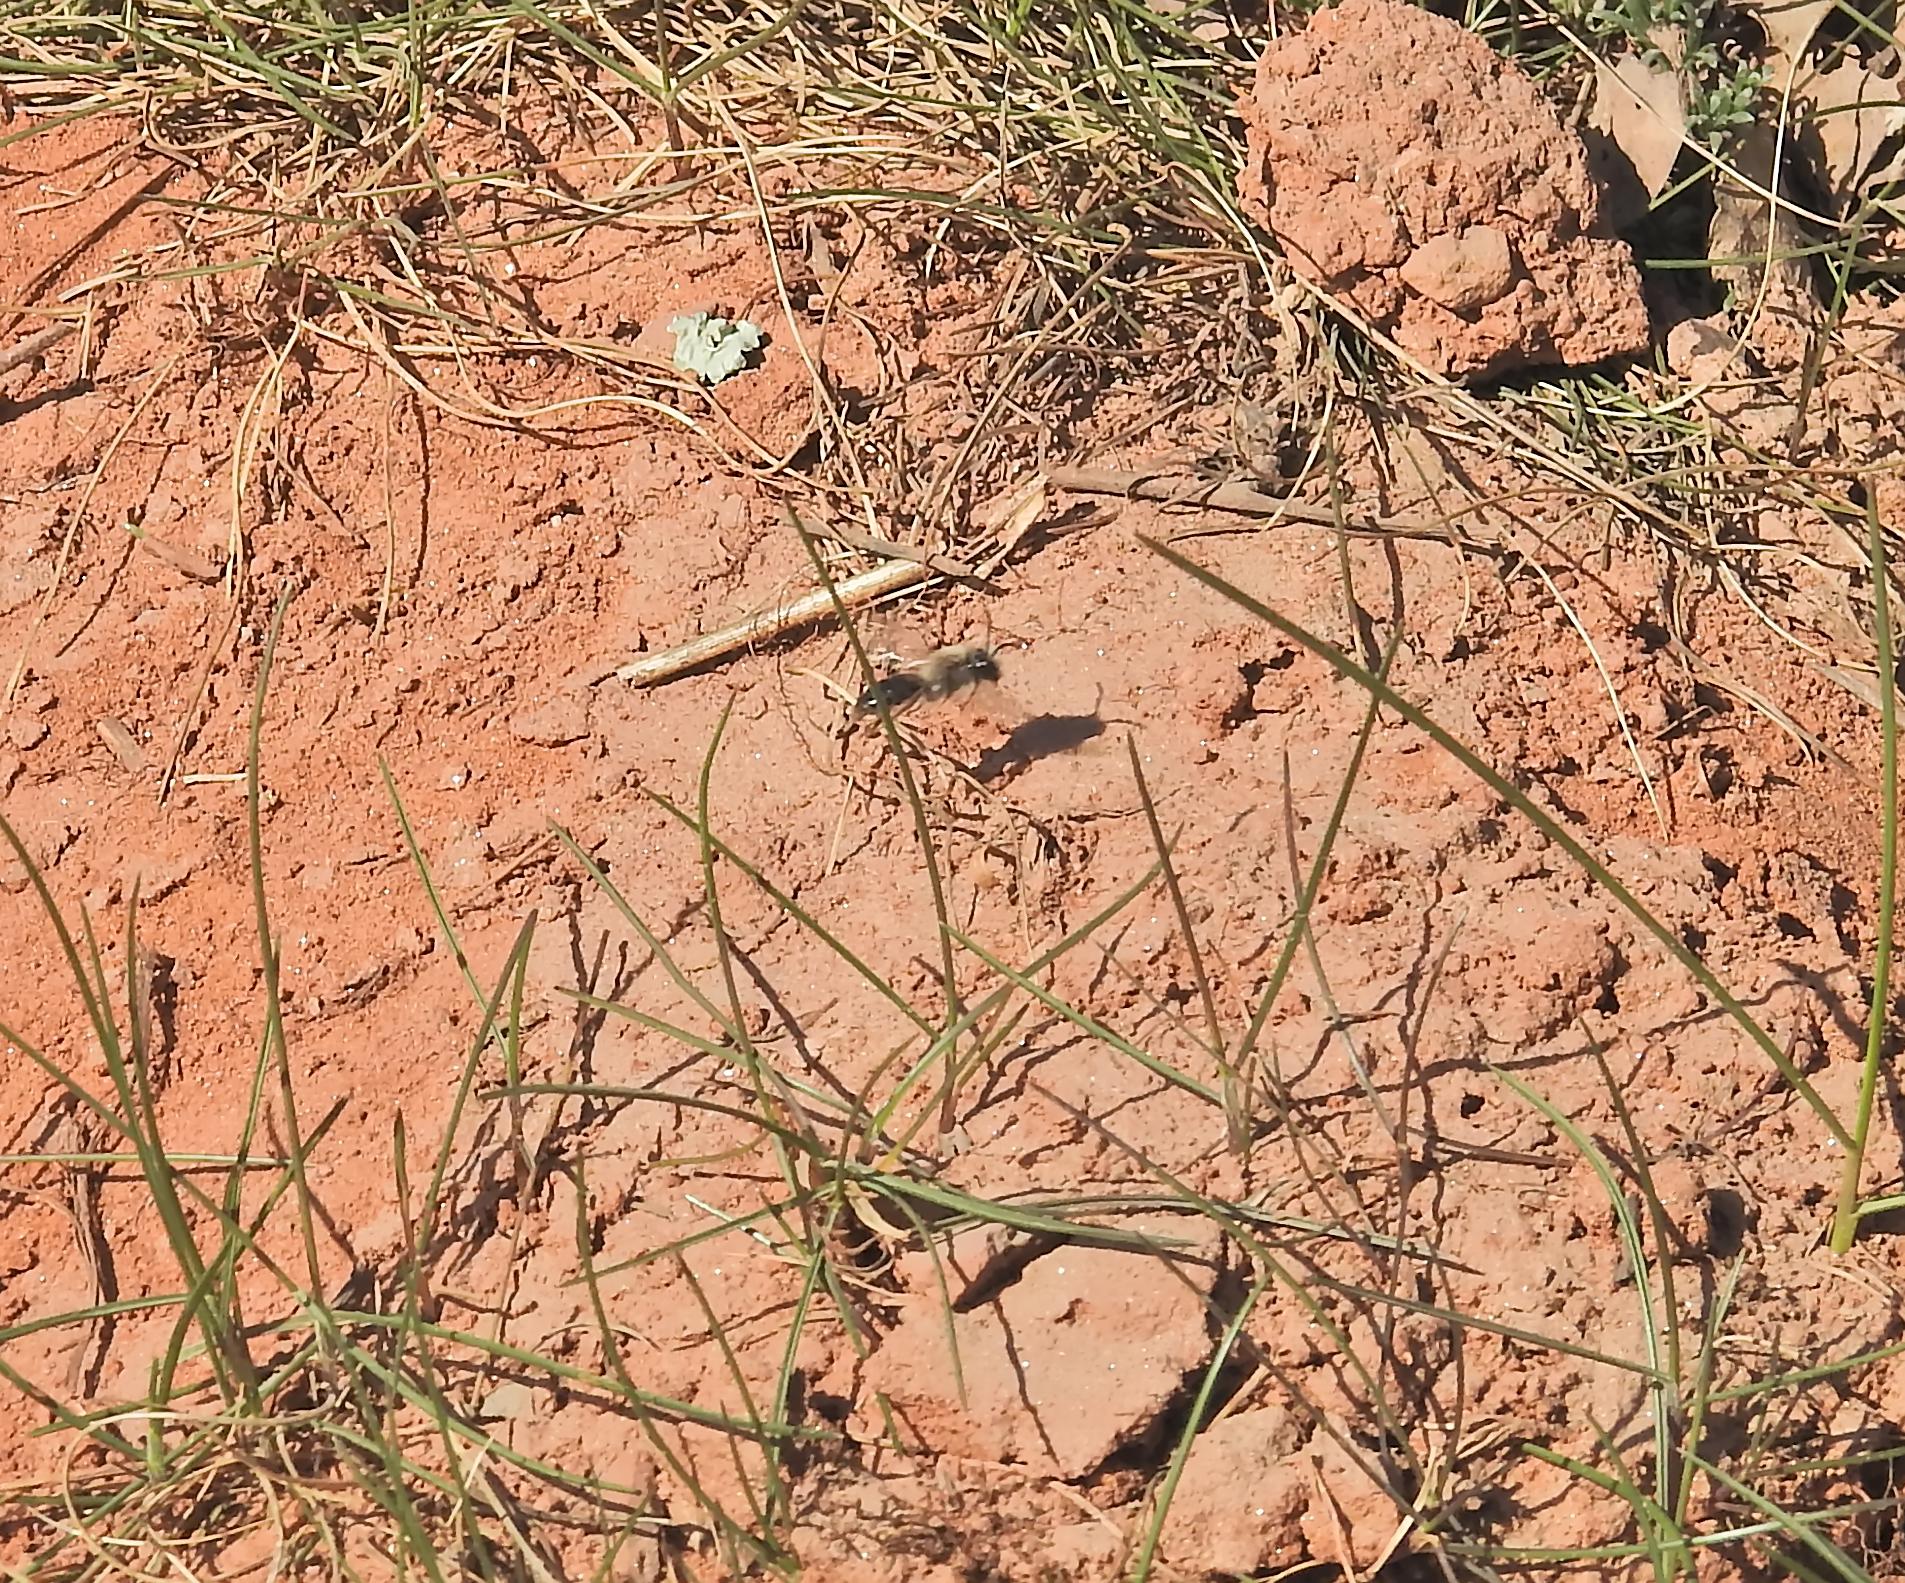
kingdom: Animalia
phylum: Arthropoda
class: Insecta
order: Hymenoptera
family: Andrenidae
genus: Andrena
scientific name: Andrena vaga
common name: Grey-backed mining bee
